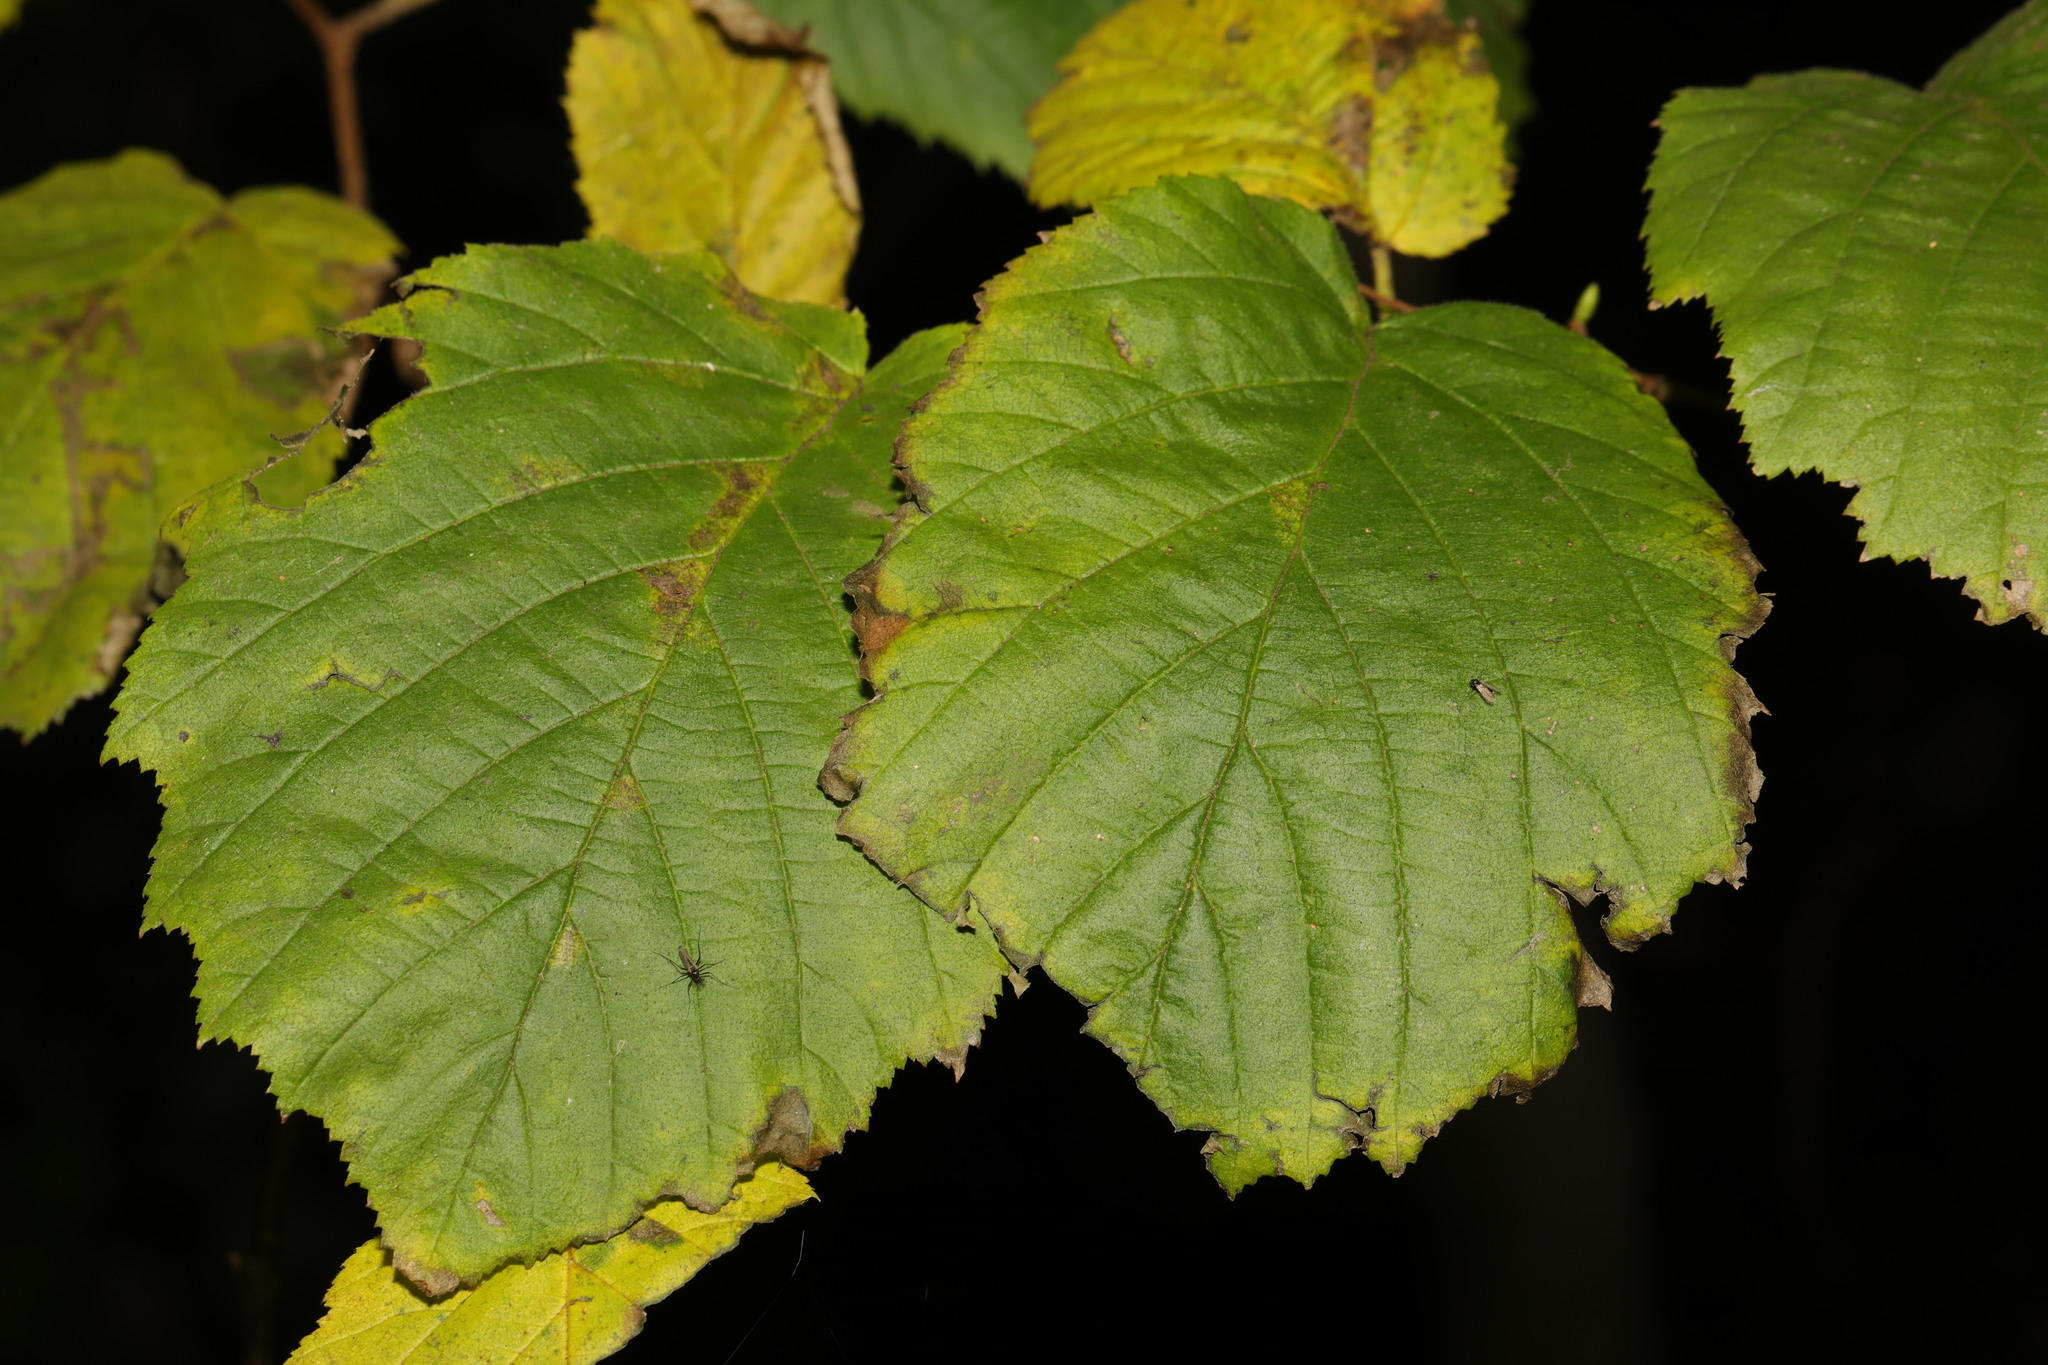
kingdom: Plantae
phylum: Tracheophyta
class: Magnoliopsida
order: Fagales
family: Betulaceae
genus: Corylus
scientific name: Corylus avellana
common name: European hazel
